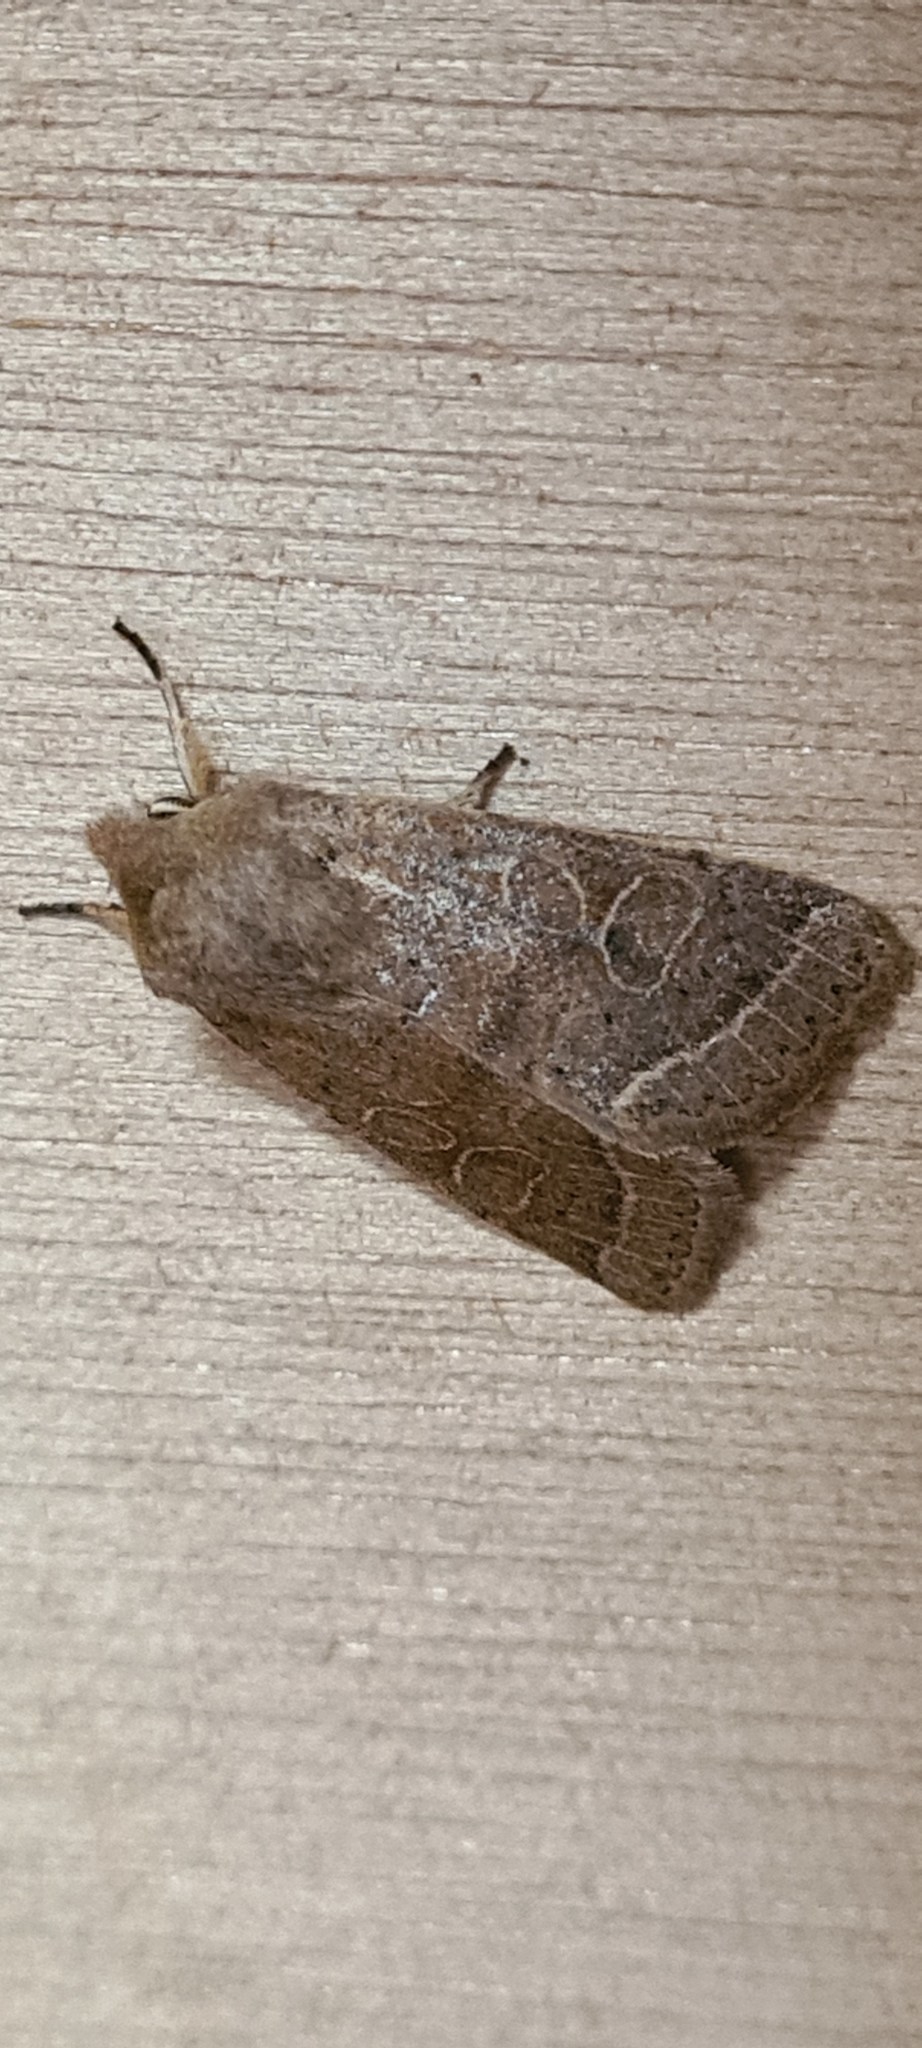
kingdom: Animalia
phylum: Arthropoda
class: Insecta
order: Lepidoptera
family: Noctuidae
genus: Orthosia
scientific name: Orthosia cerasi
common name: Common quaker
